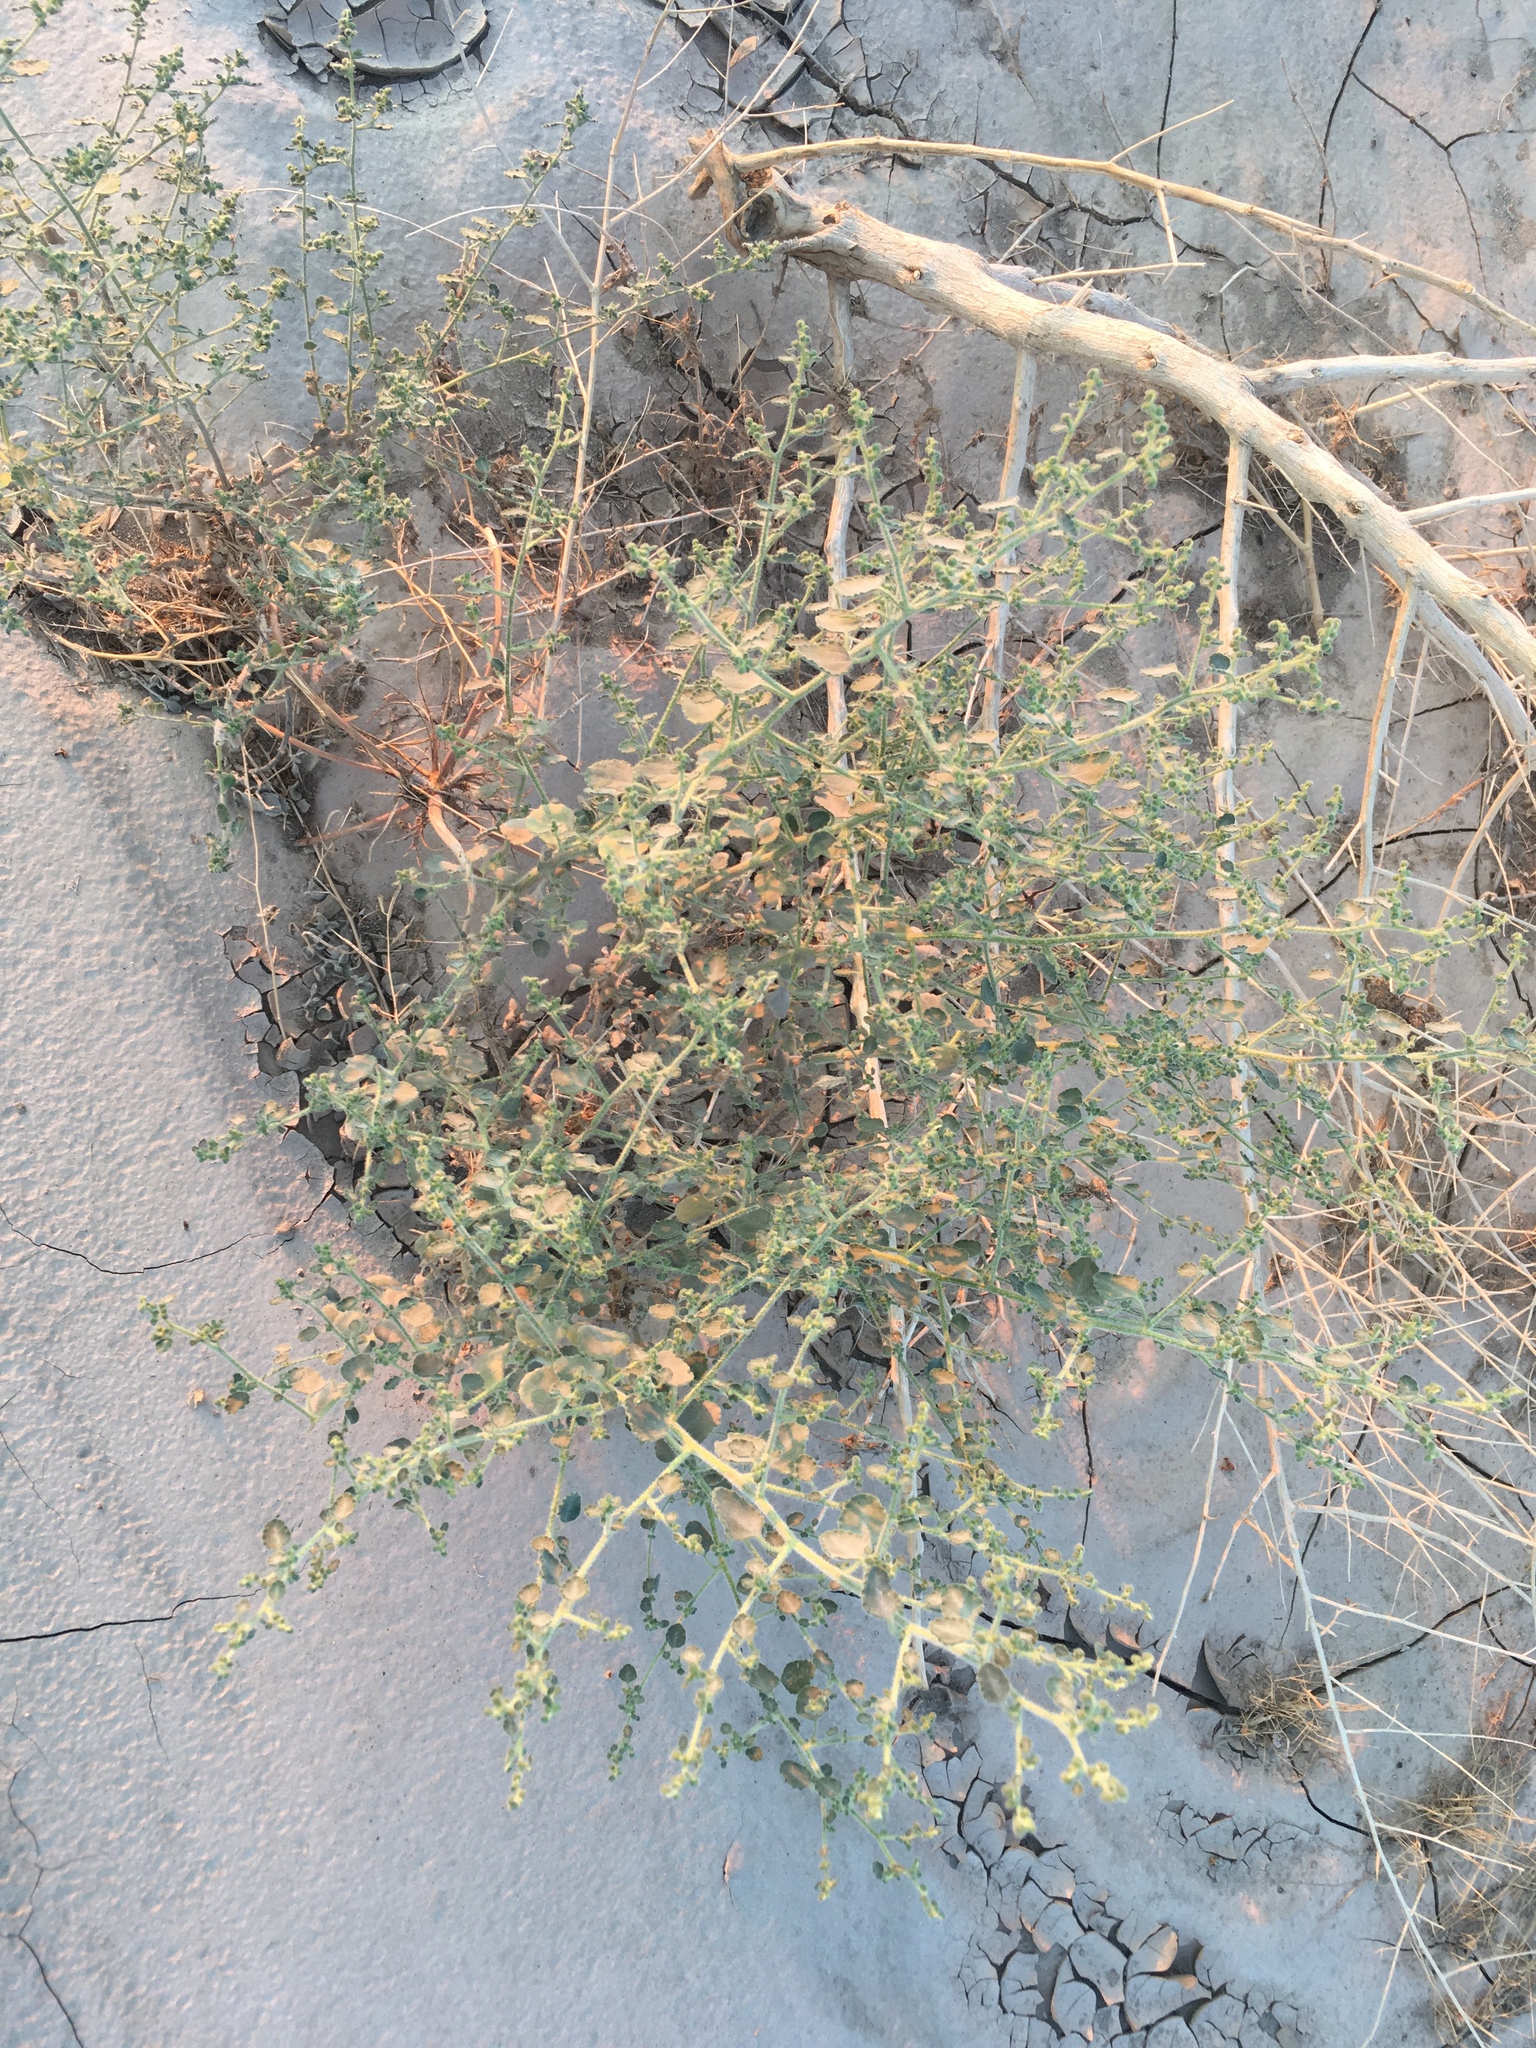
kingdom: Plantae
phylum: Tracheophyta
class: Magnoliopsida
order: Asterales
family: Asteraceae
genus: Dicoria
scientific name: Dicoria canescens
